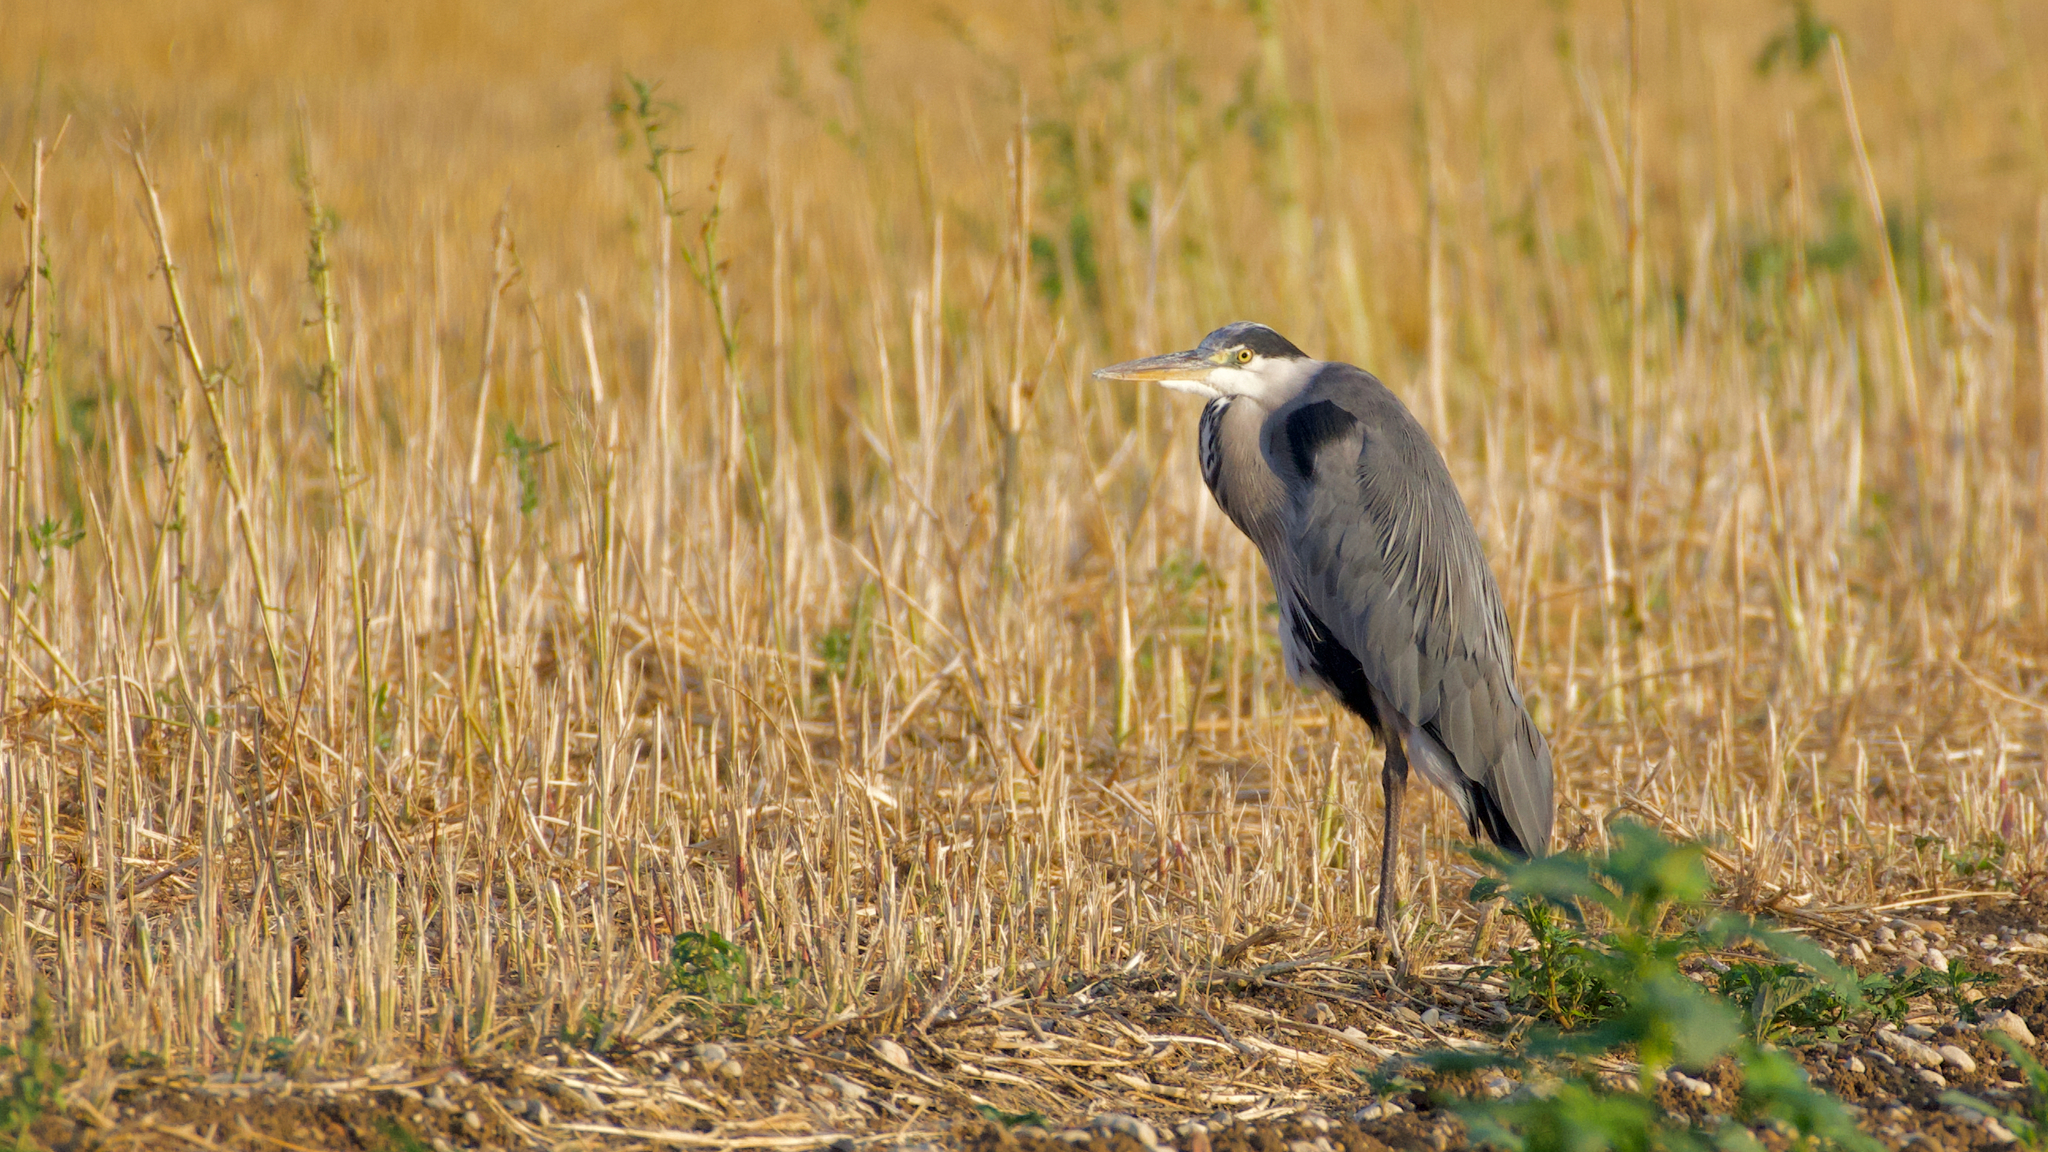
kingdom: Animalia
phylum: Chordata
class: Aves
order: Pelecaniformes
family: Ardeidae
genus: Ardea
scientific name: Ardea cinerea
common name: Grey heron
